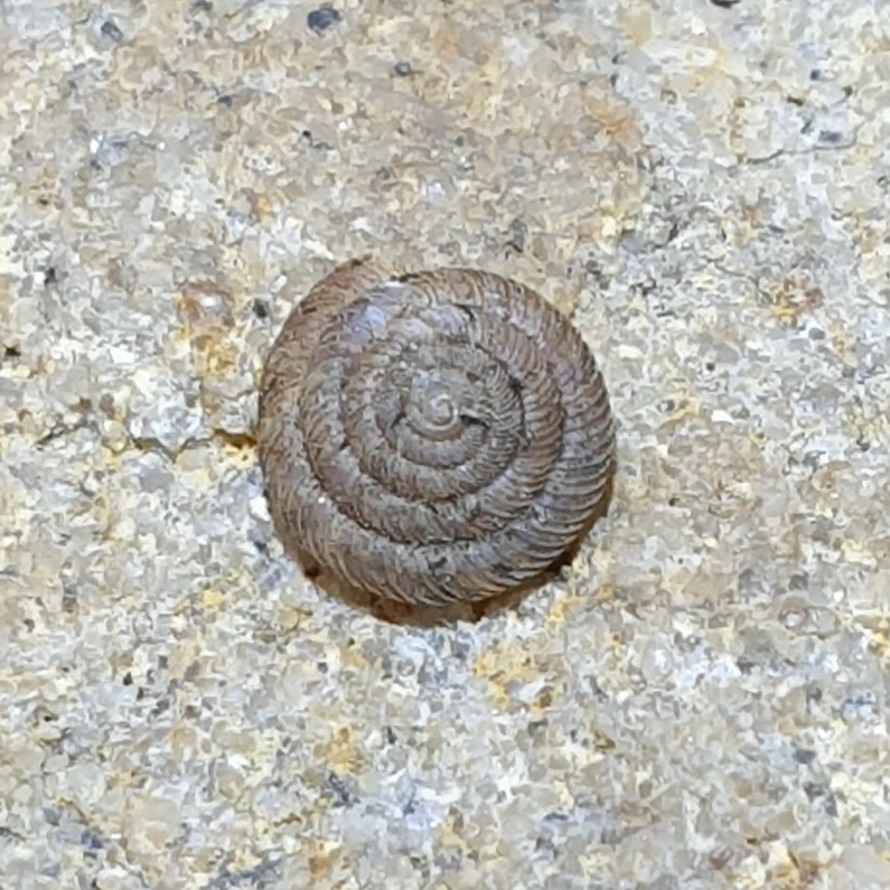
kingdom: Animalia
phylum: Mollusca
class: Gastropoda
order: Stylommatophora
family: Discidae
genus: Discus
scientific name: Discus rotundatus
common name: Rounded snail
